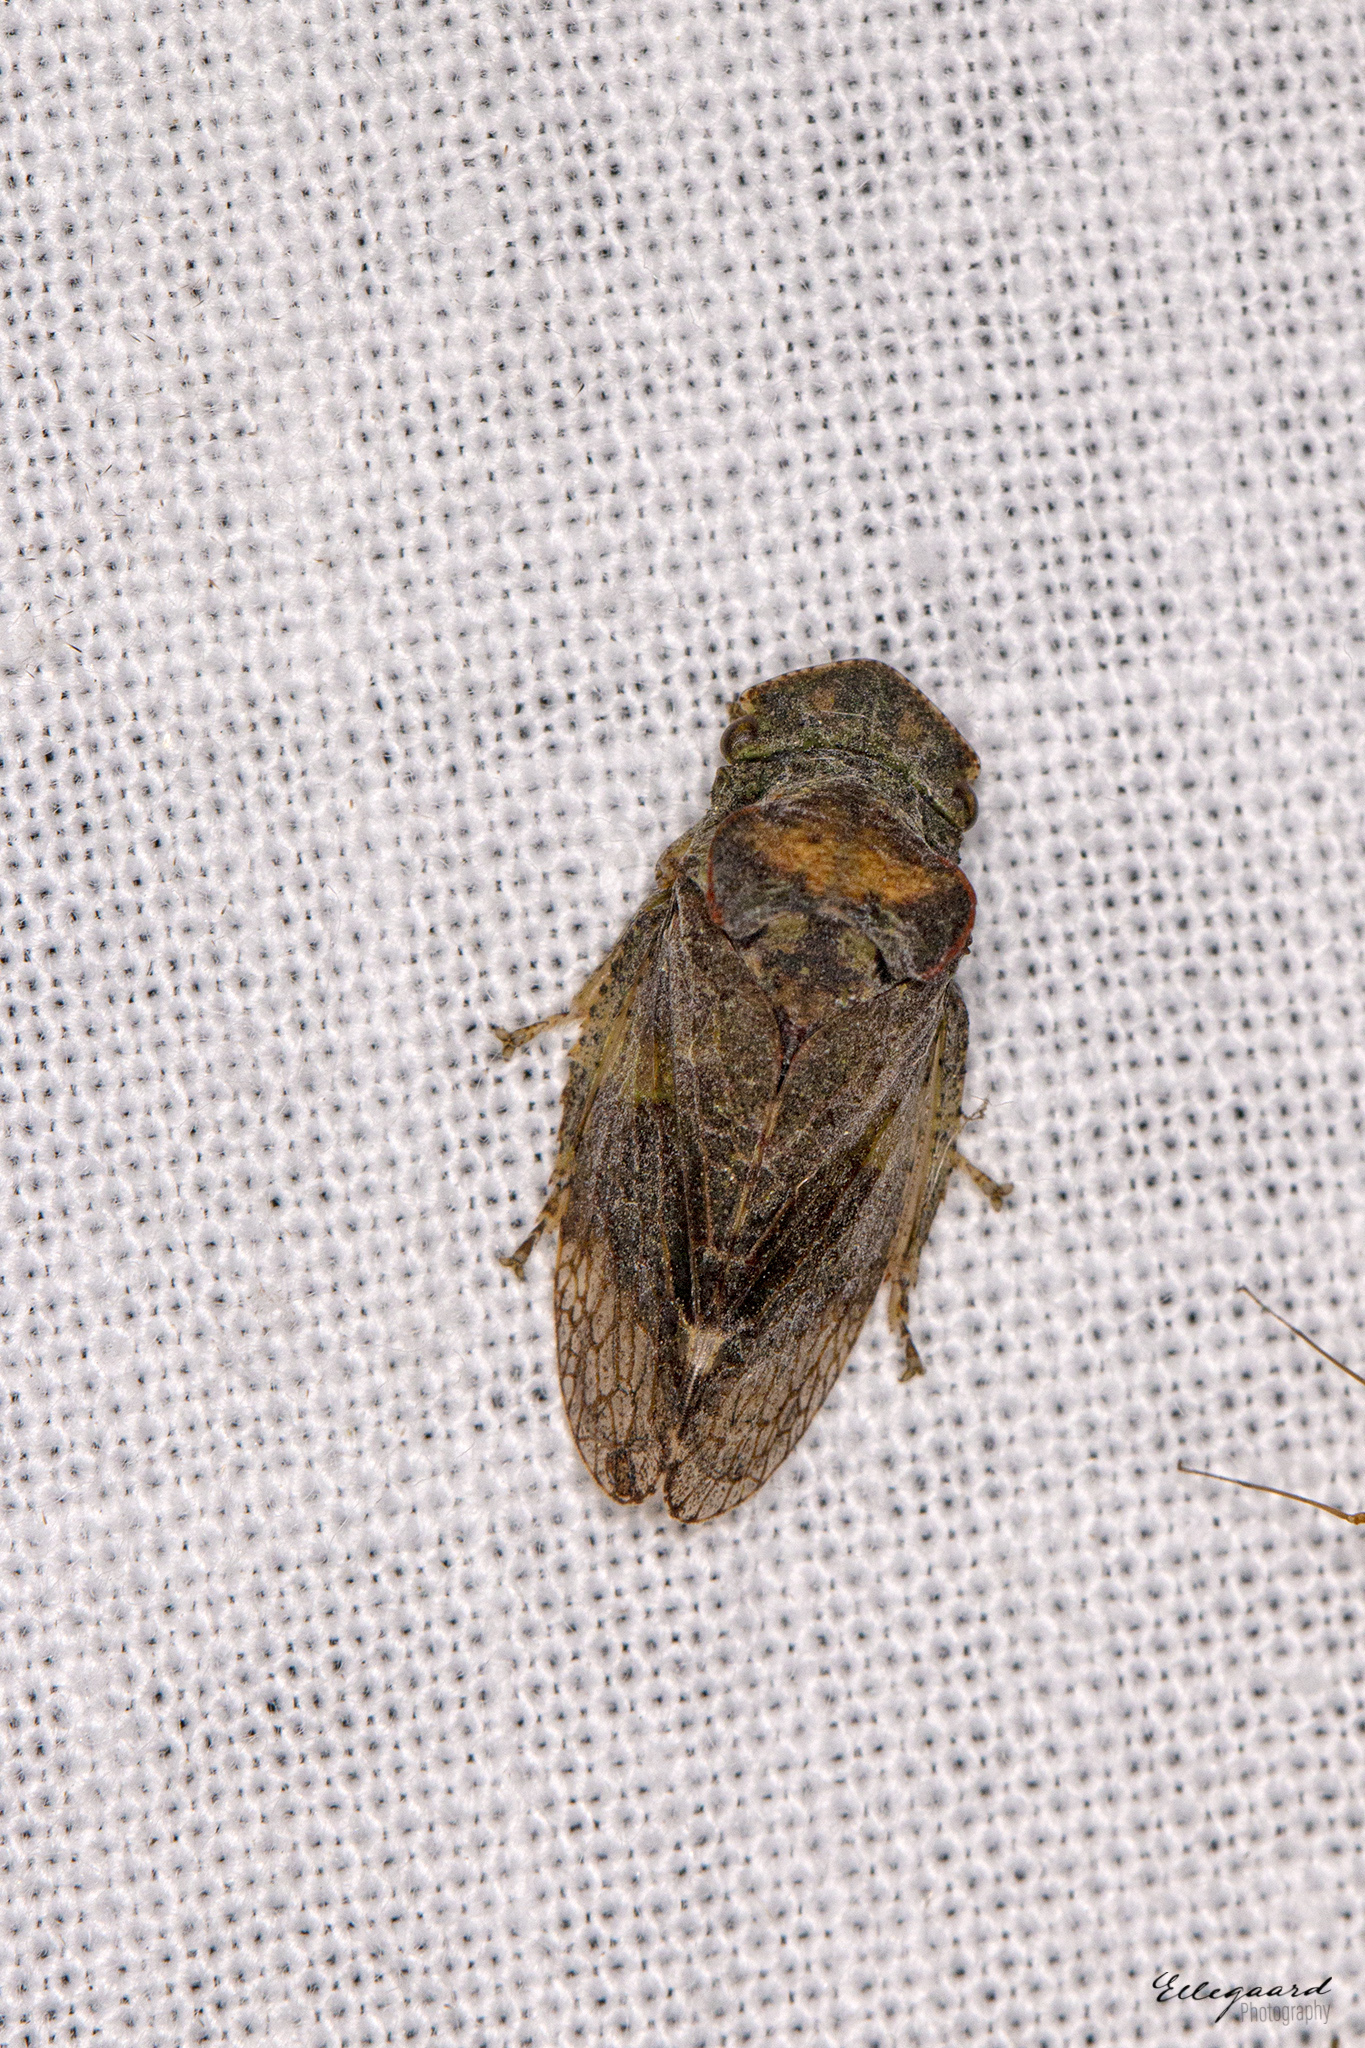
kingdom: Animalia
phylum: Arthropoda
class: Insecta
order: Hemiptera
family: Cicadellidae
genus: Ledra
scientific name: Ledra aurita
